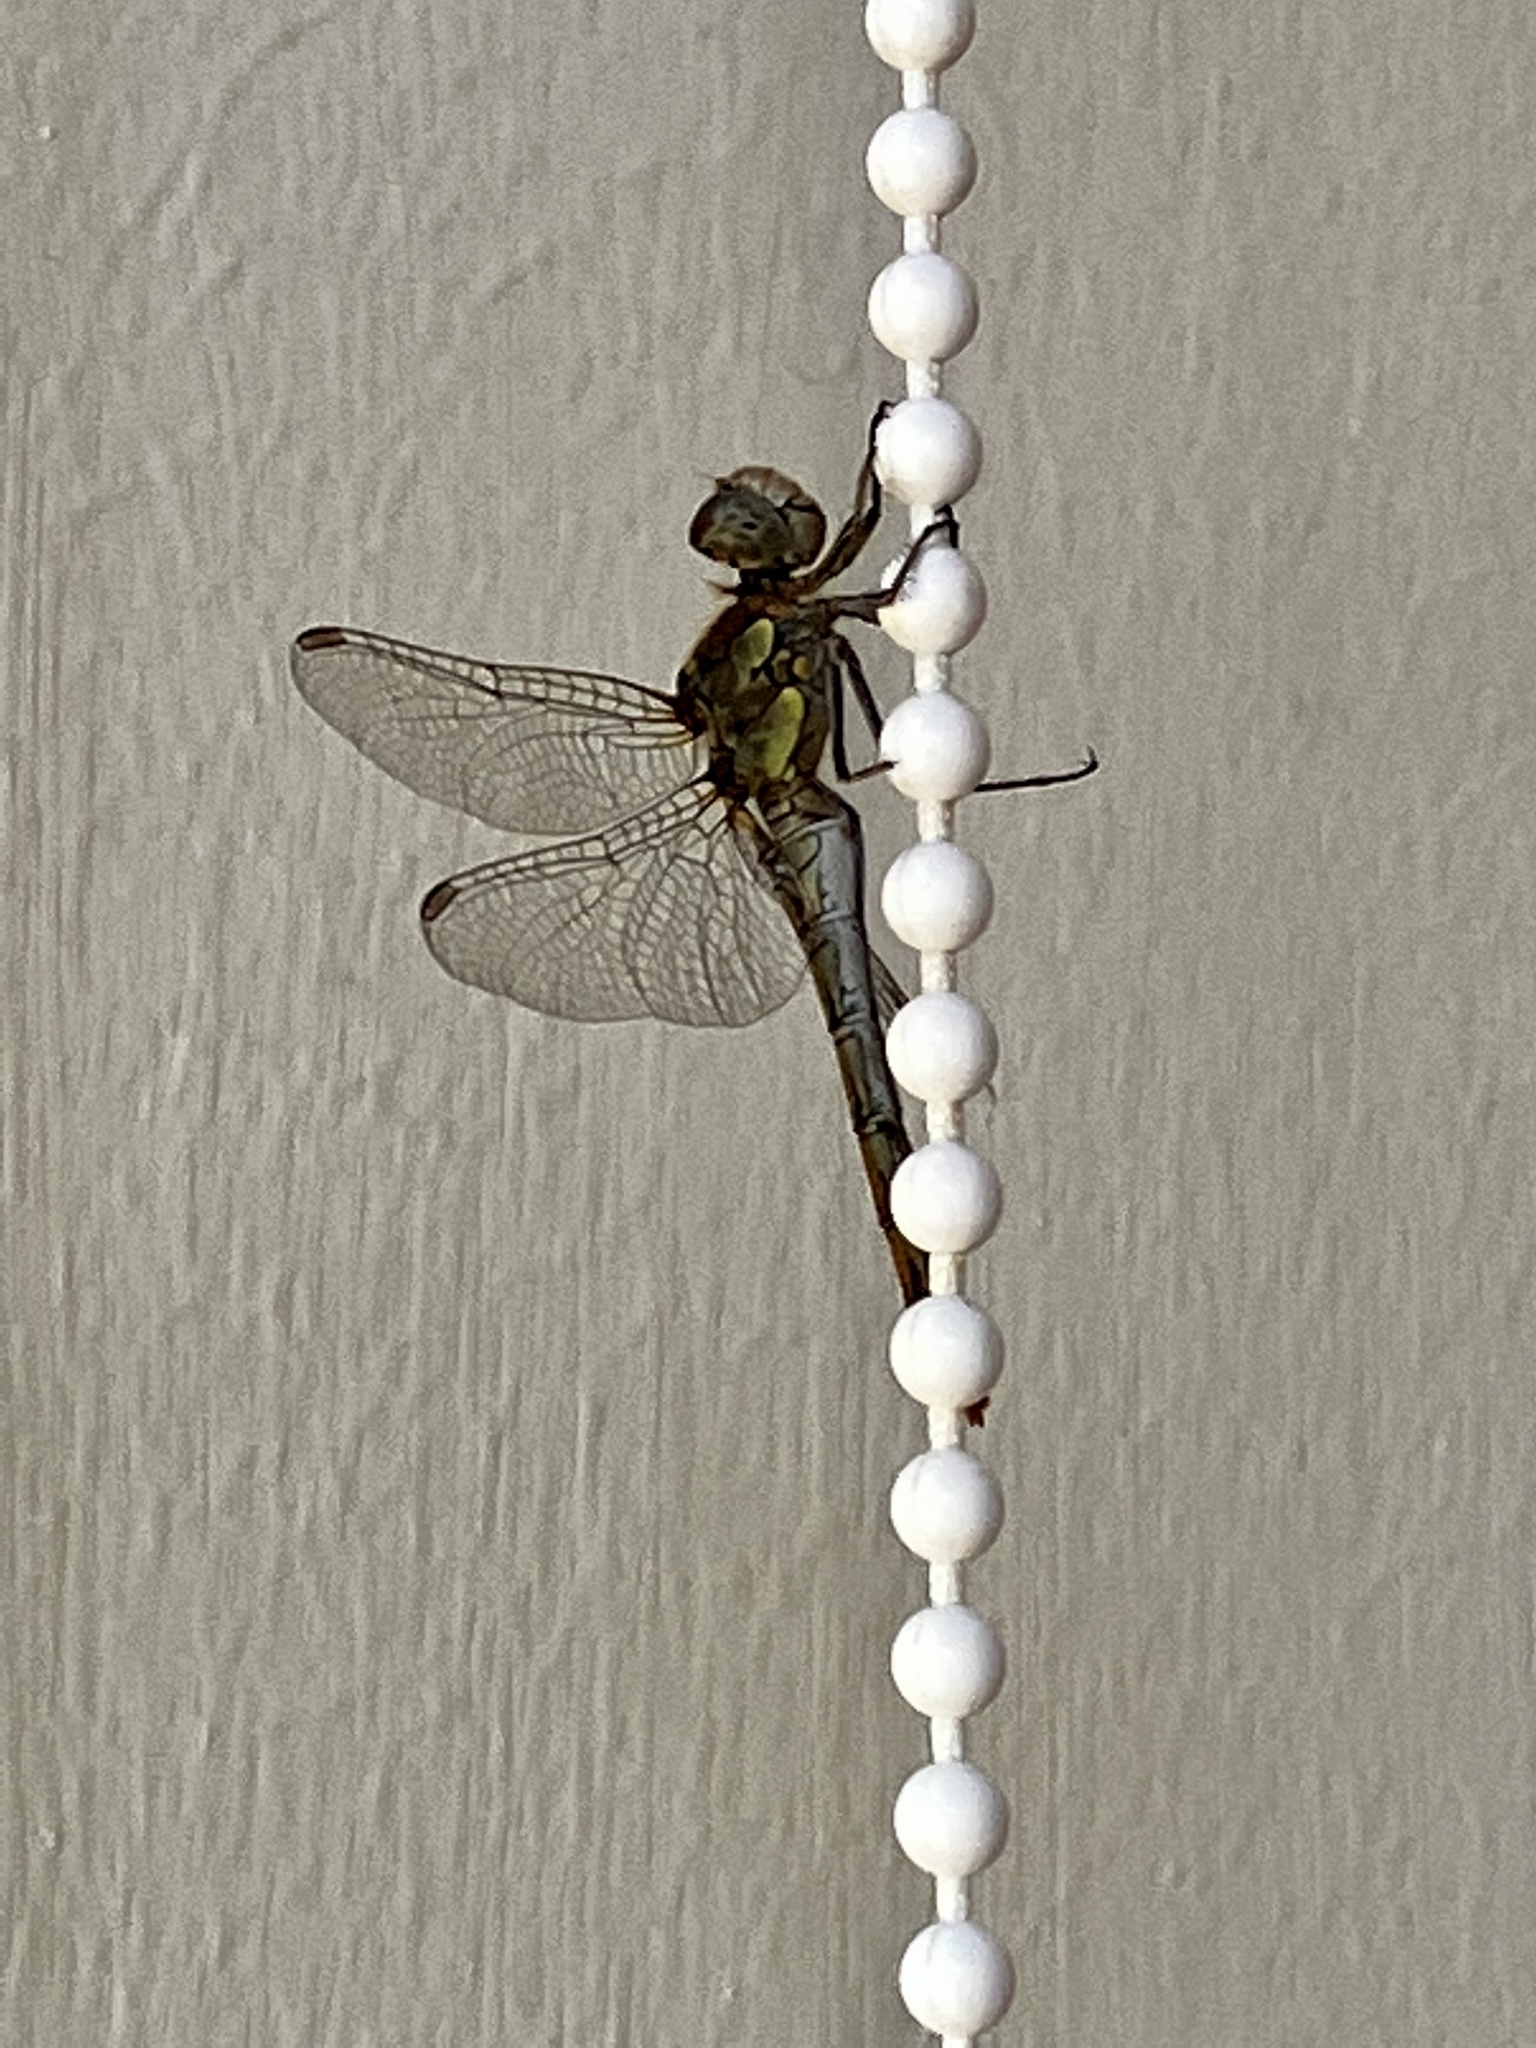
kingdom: Animalia
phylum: Arthropoda
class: Insecta
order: Odonata
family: Libellulidae
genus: Sympetrum
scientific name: Sympetrum striolatum
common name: Common darter
